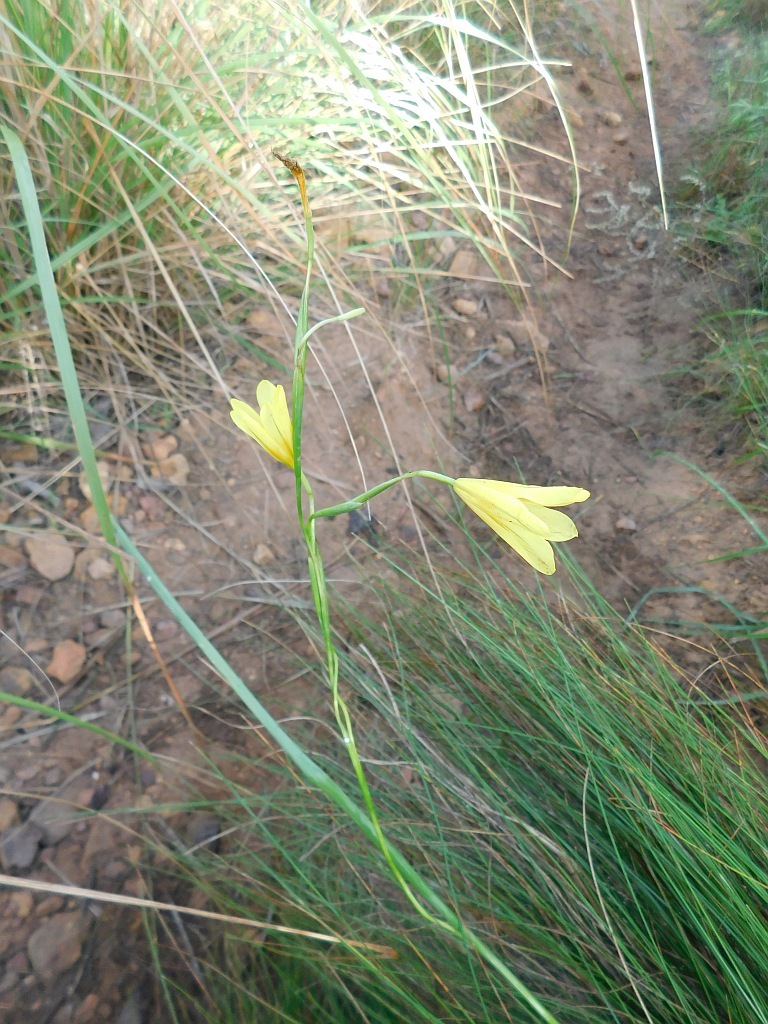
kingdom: Plantae
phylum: Tracheophyta
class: Liliopsida
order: Asparagales
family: Iridaceae
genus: Moraea
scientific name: Moraea collina
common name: Cape-tulip
